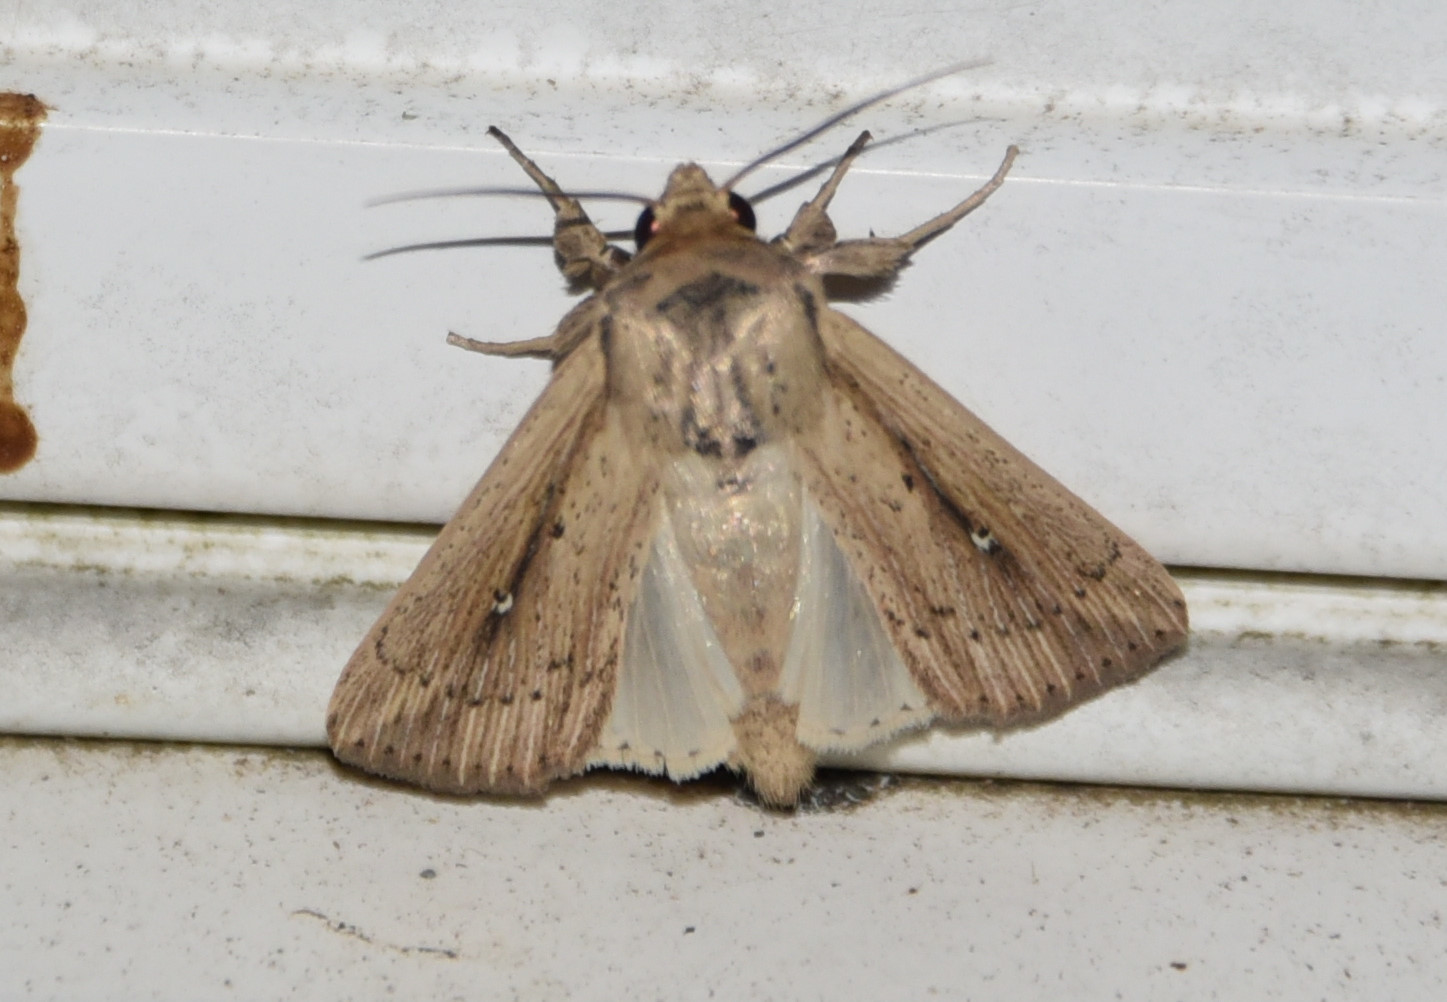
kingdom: Animalia
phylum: Arthropoda
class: Insecta
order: Lepidoptera
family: Noctuidae
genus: Leucania
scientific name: Leucania incognita
